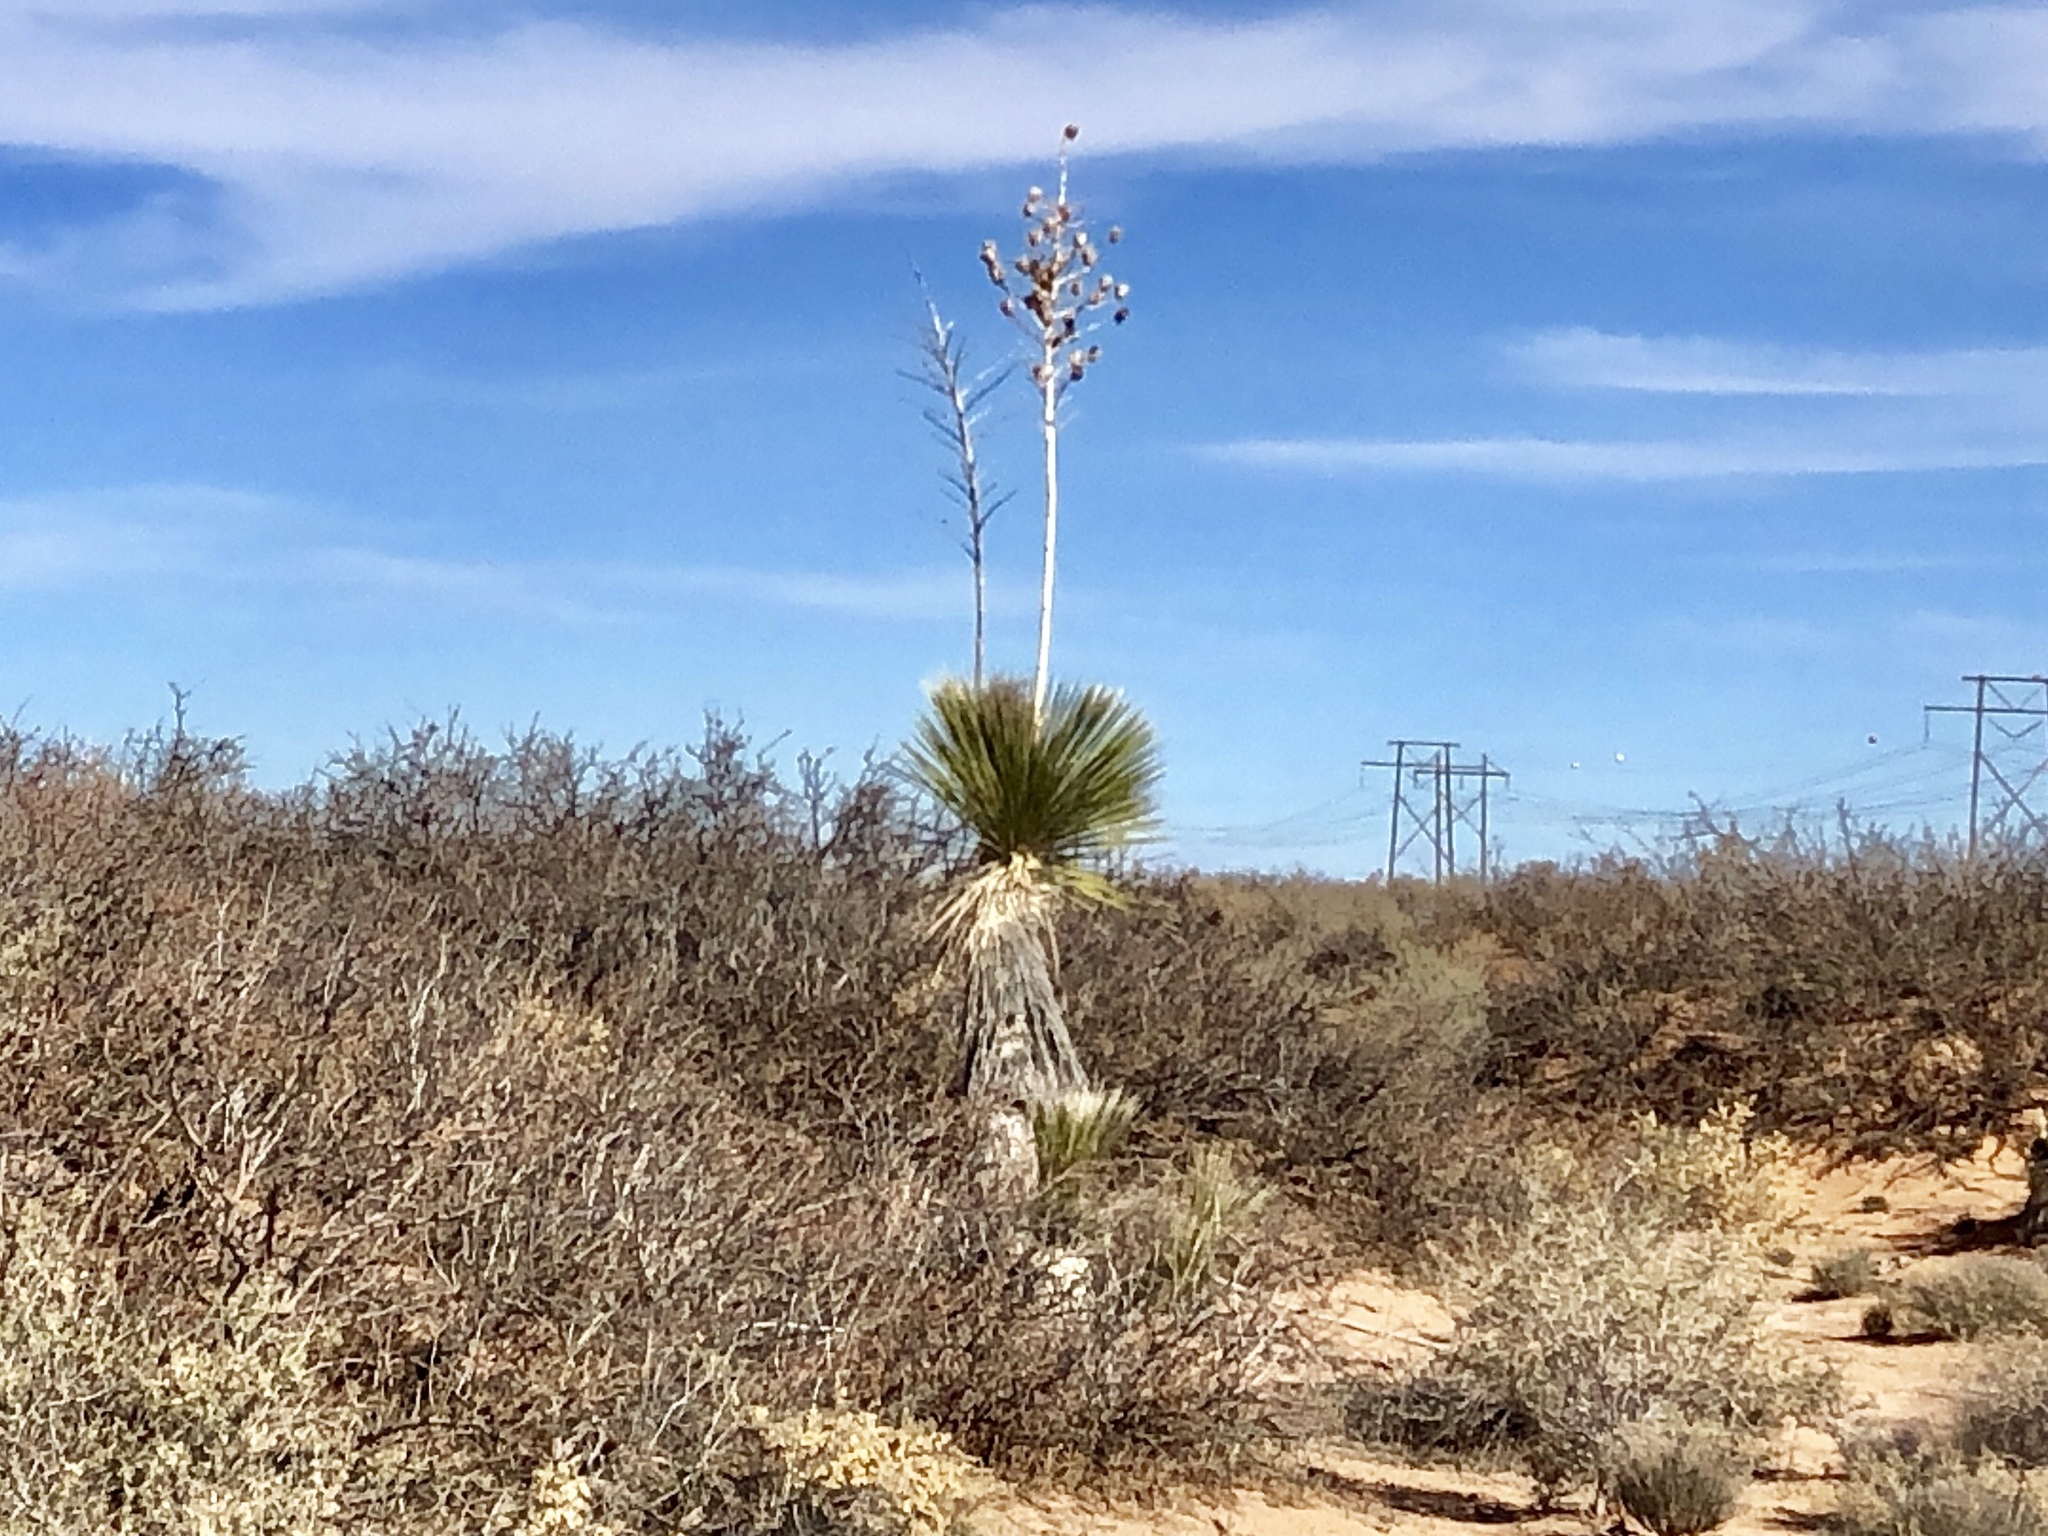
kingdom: Plantae
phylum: Tracheophyta
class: Liliopsida
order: Asparagales
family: Asparagaceae
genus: Yucca
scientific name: Yucca elata
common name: Palmella
